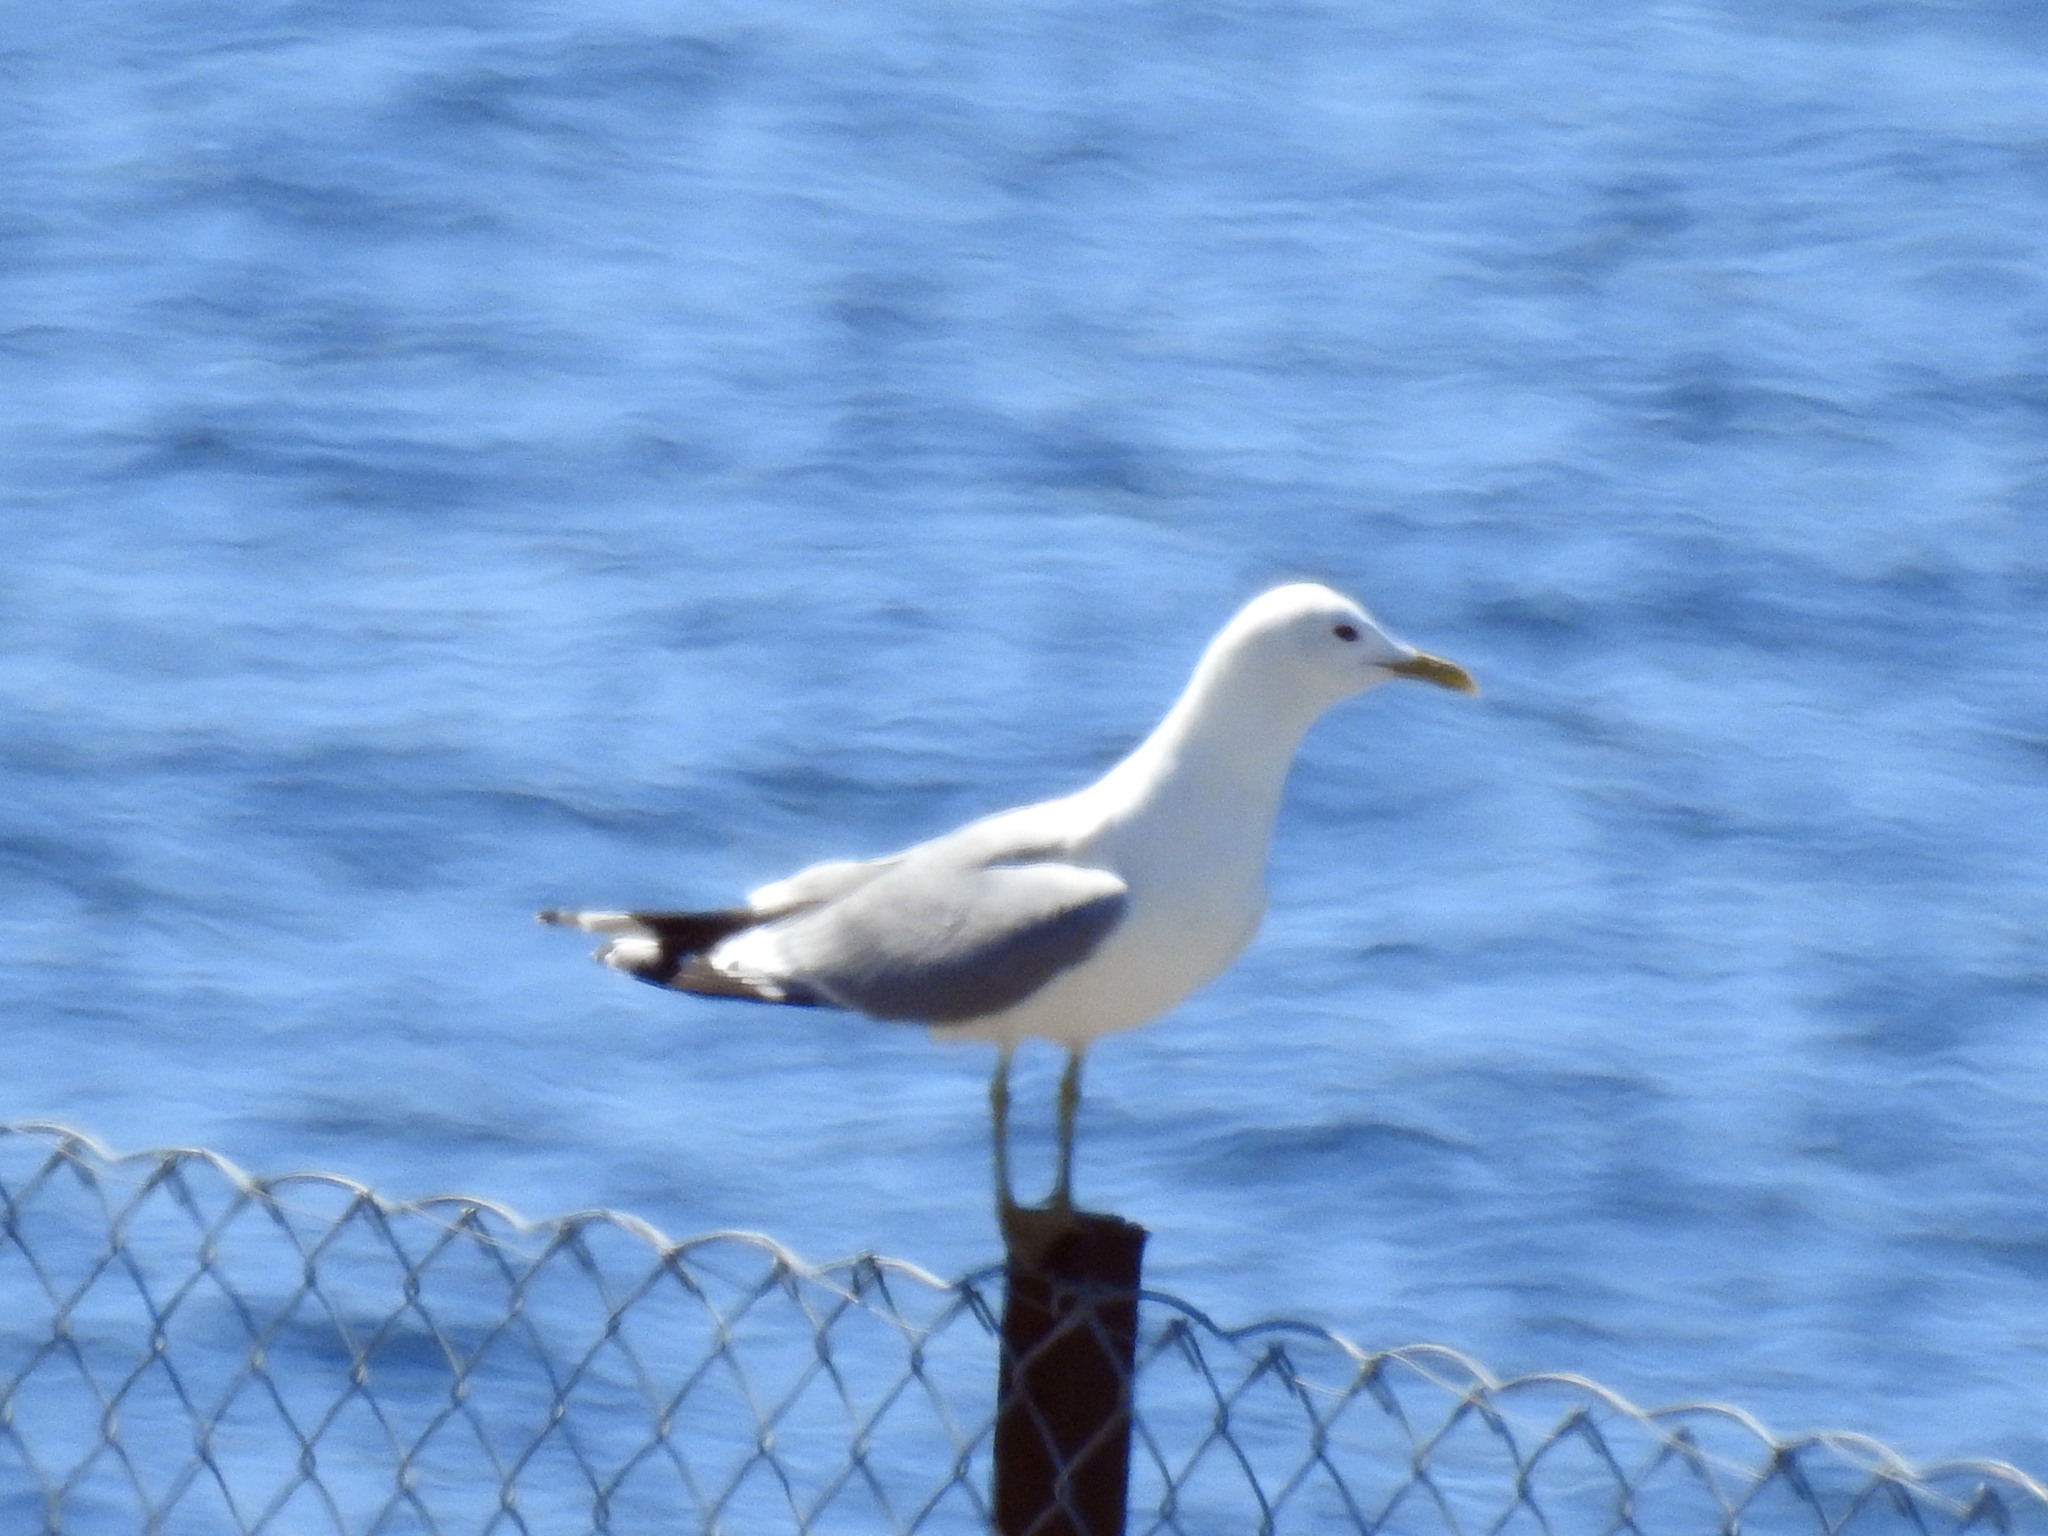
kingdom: Animalia
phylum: Chordata
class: Aves
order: Charadriiformes
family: Laridae
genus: Larus
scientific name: Larus canus
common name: Mew gull
